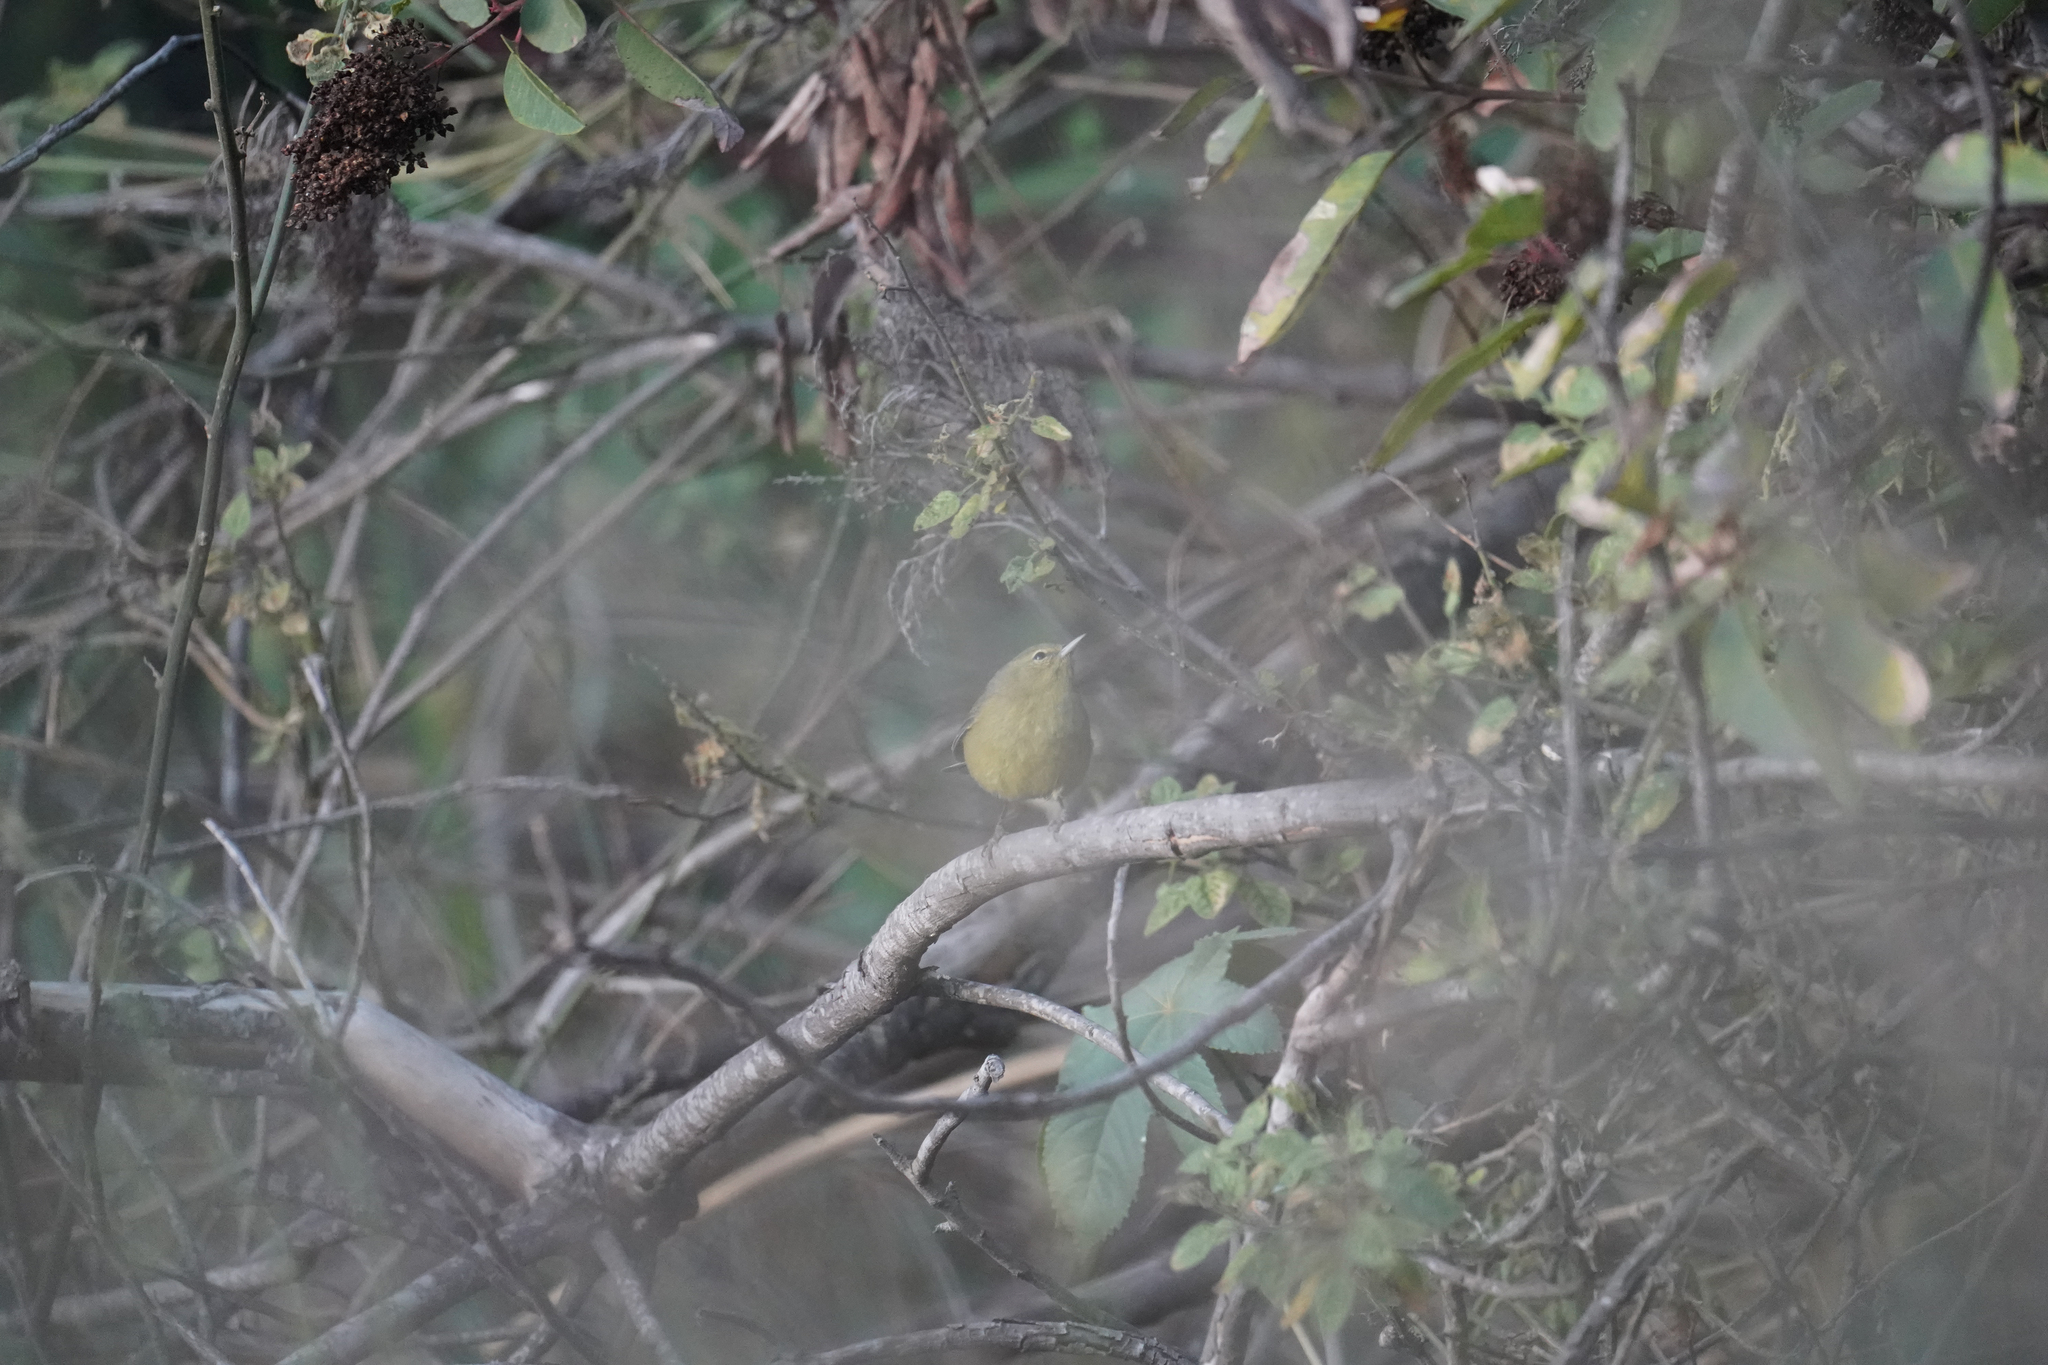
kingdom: Animalia
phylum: Chordata
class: Aves
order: Passeriformes
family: Parulidae
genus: Leiothlypis
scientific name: Leiothlypis celata
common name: Orange-crowned warbler
